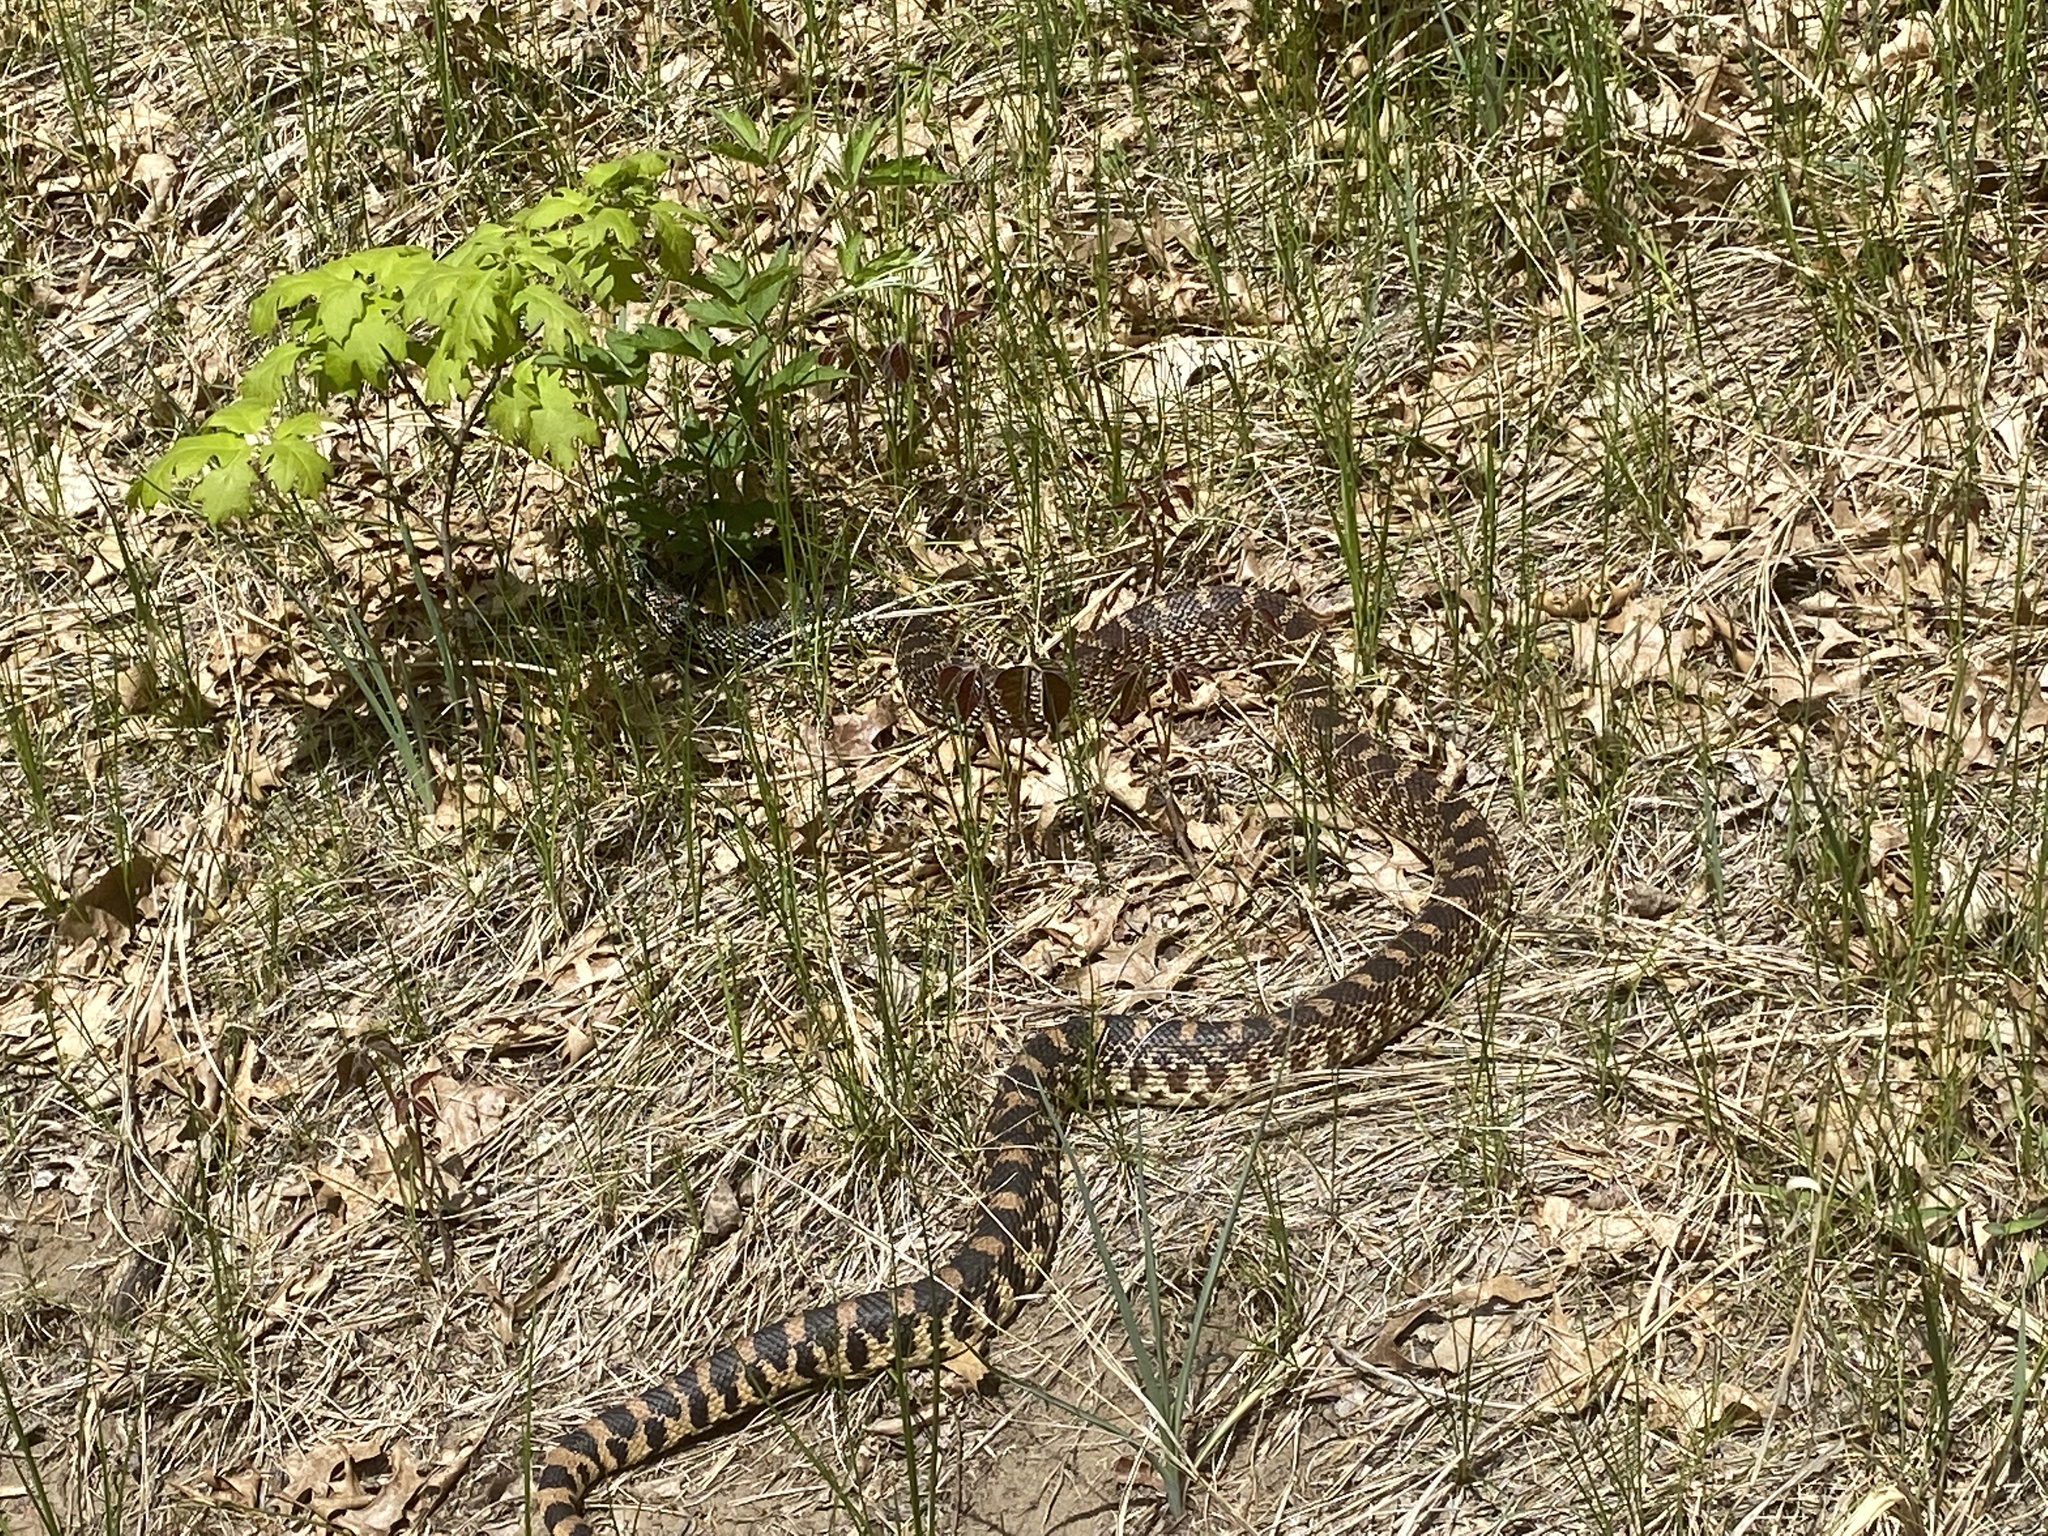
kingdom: Animalia
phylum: Chordata
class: Squamata
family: Colubridae
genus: Pituophis
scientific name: Pituophis catenifer
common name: Gopher snake
